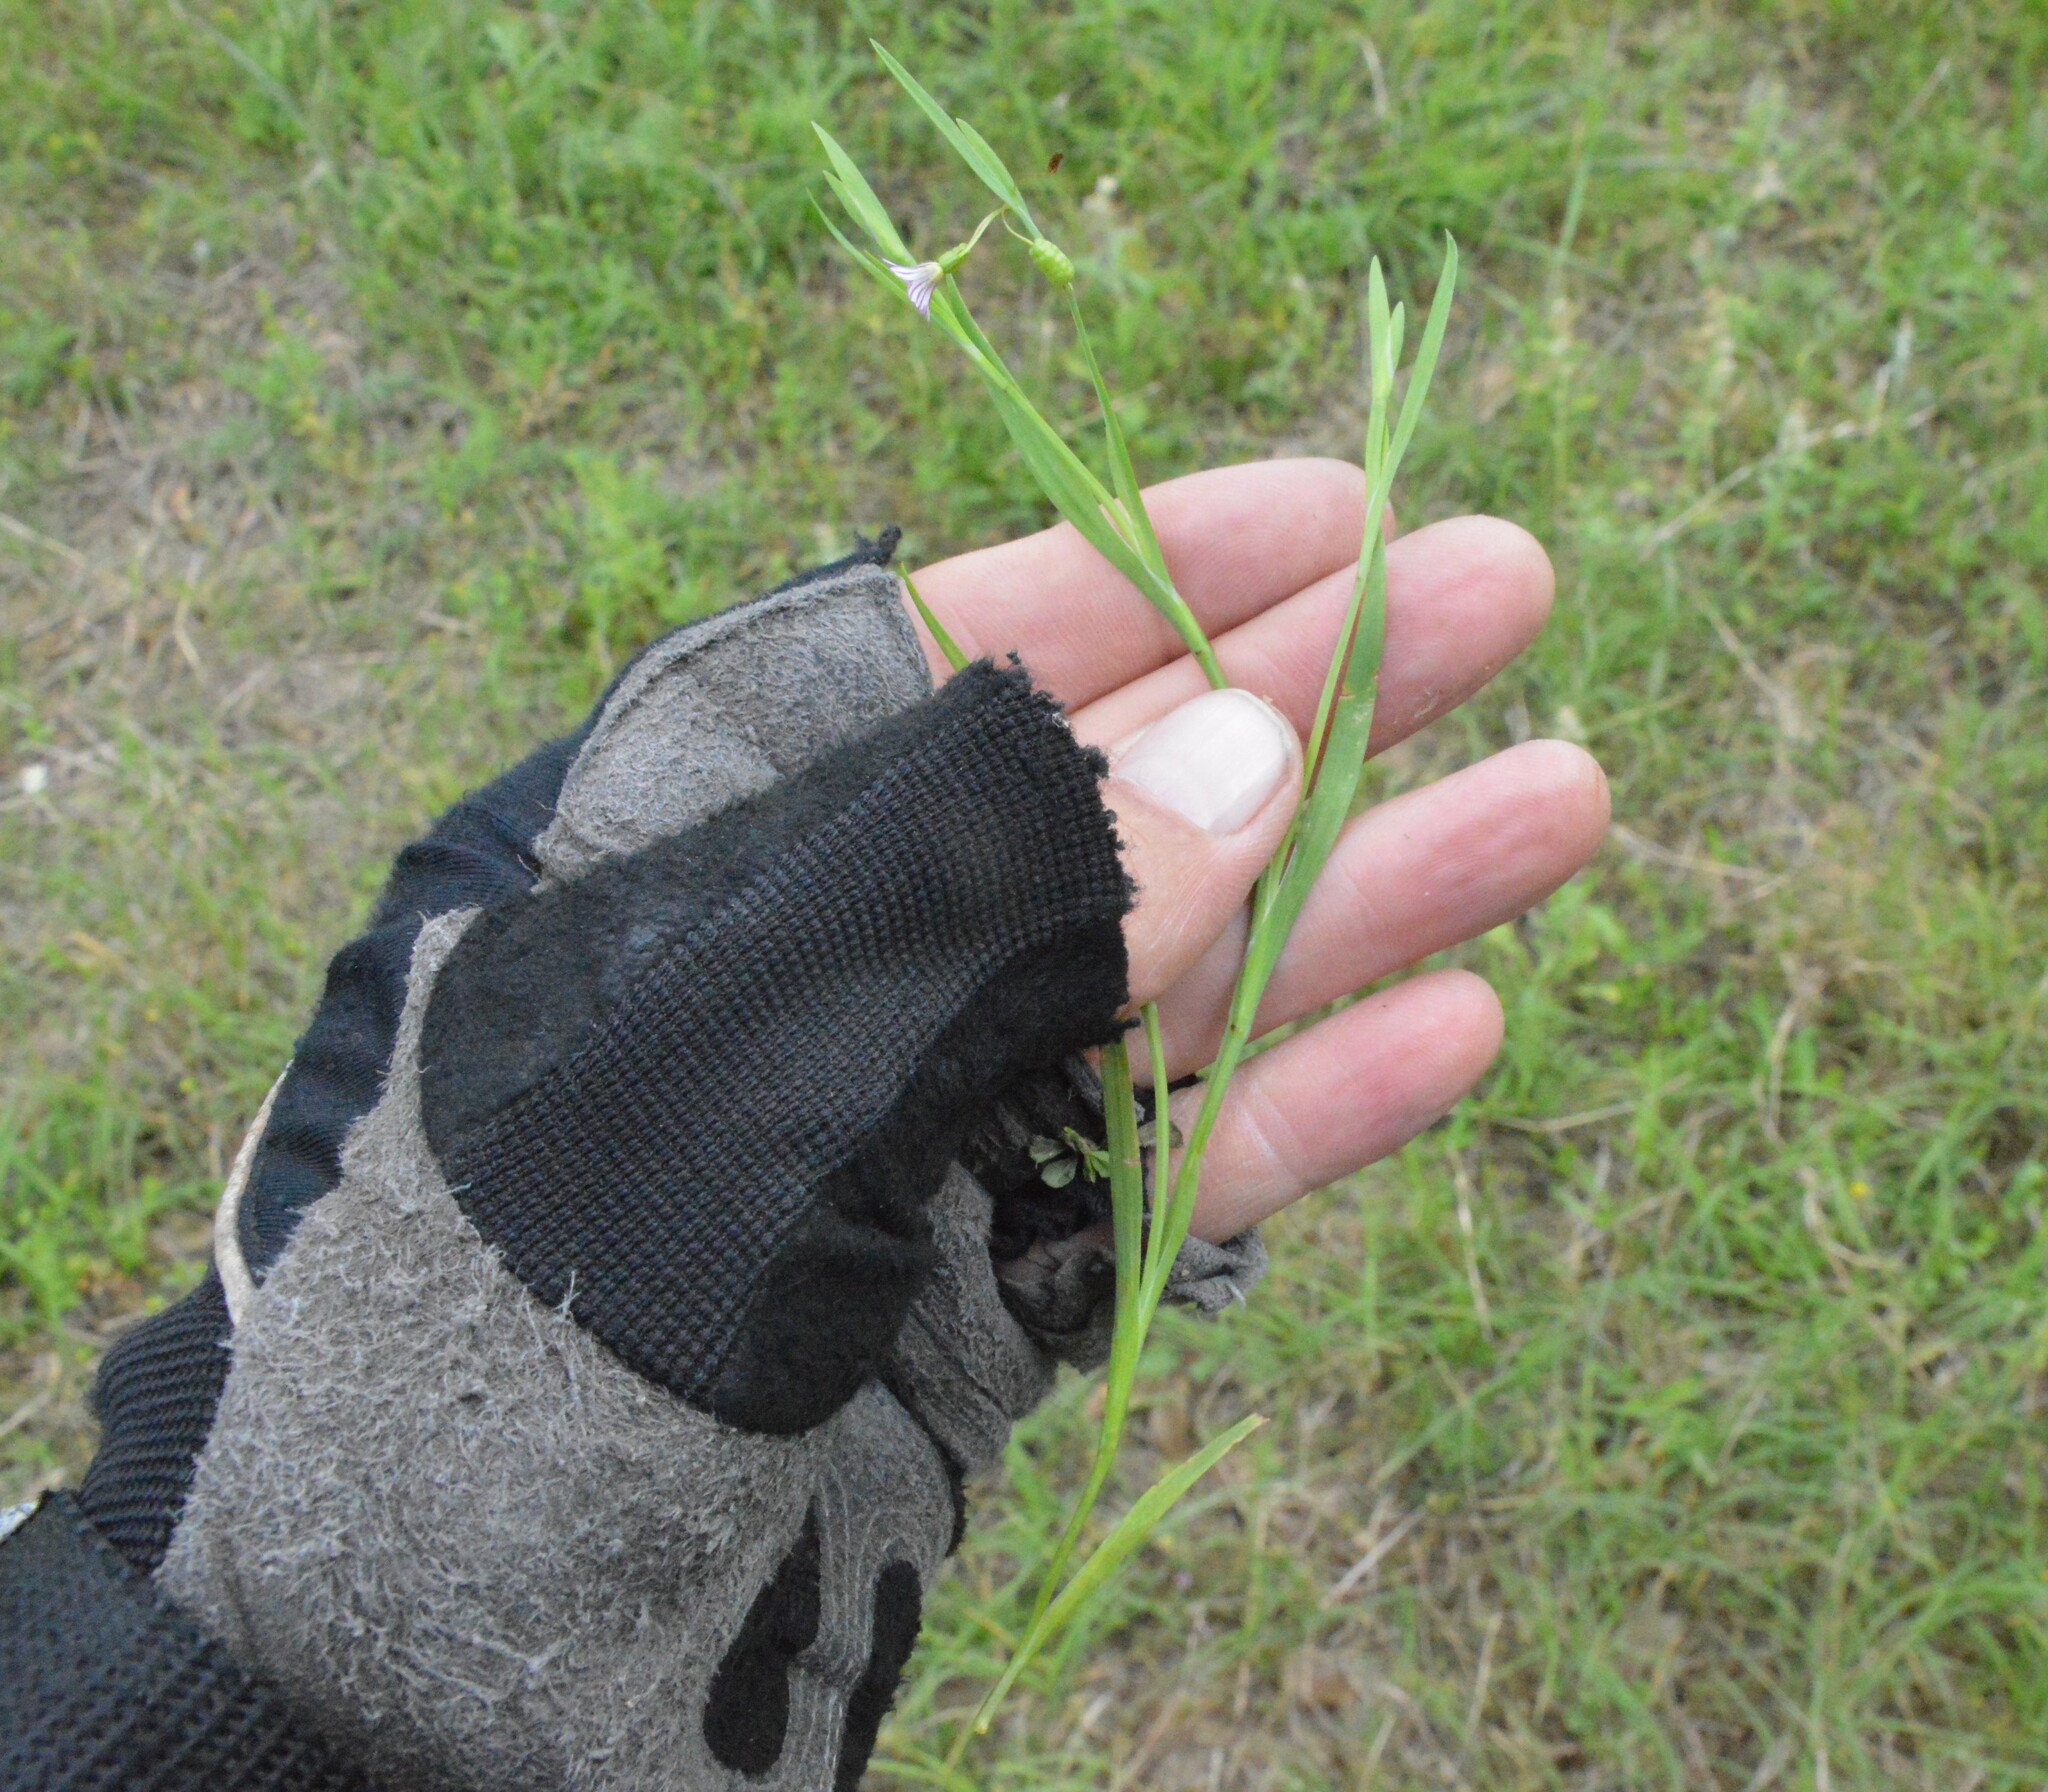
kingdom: Plantae
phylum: Tracheophyta
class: Liliopsida
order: Asparagales
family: Iridaceae
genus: Sisyrinchium
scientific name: Sisyrinchium minus
